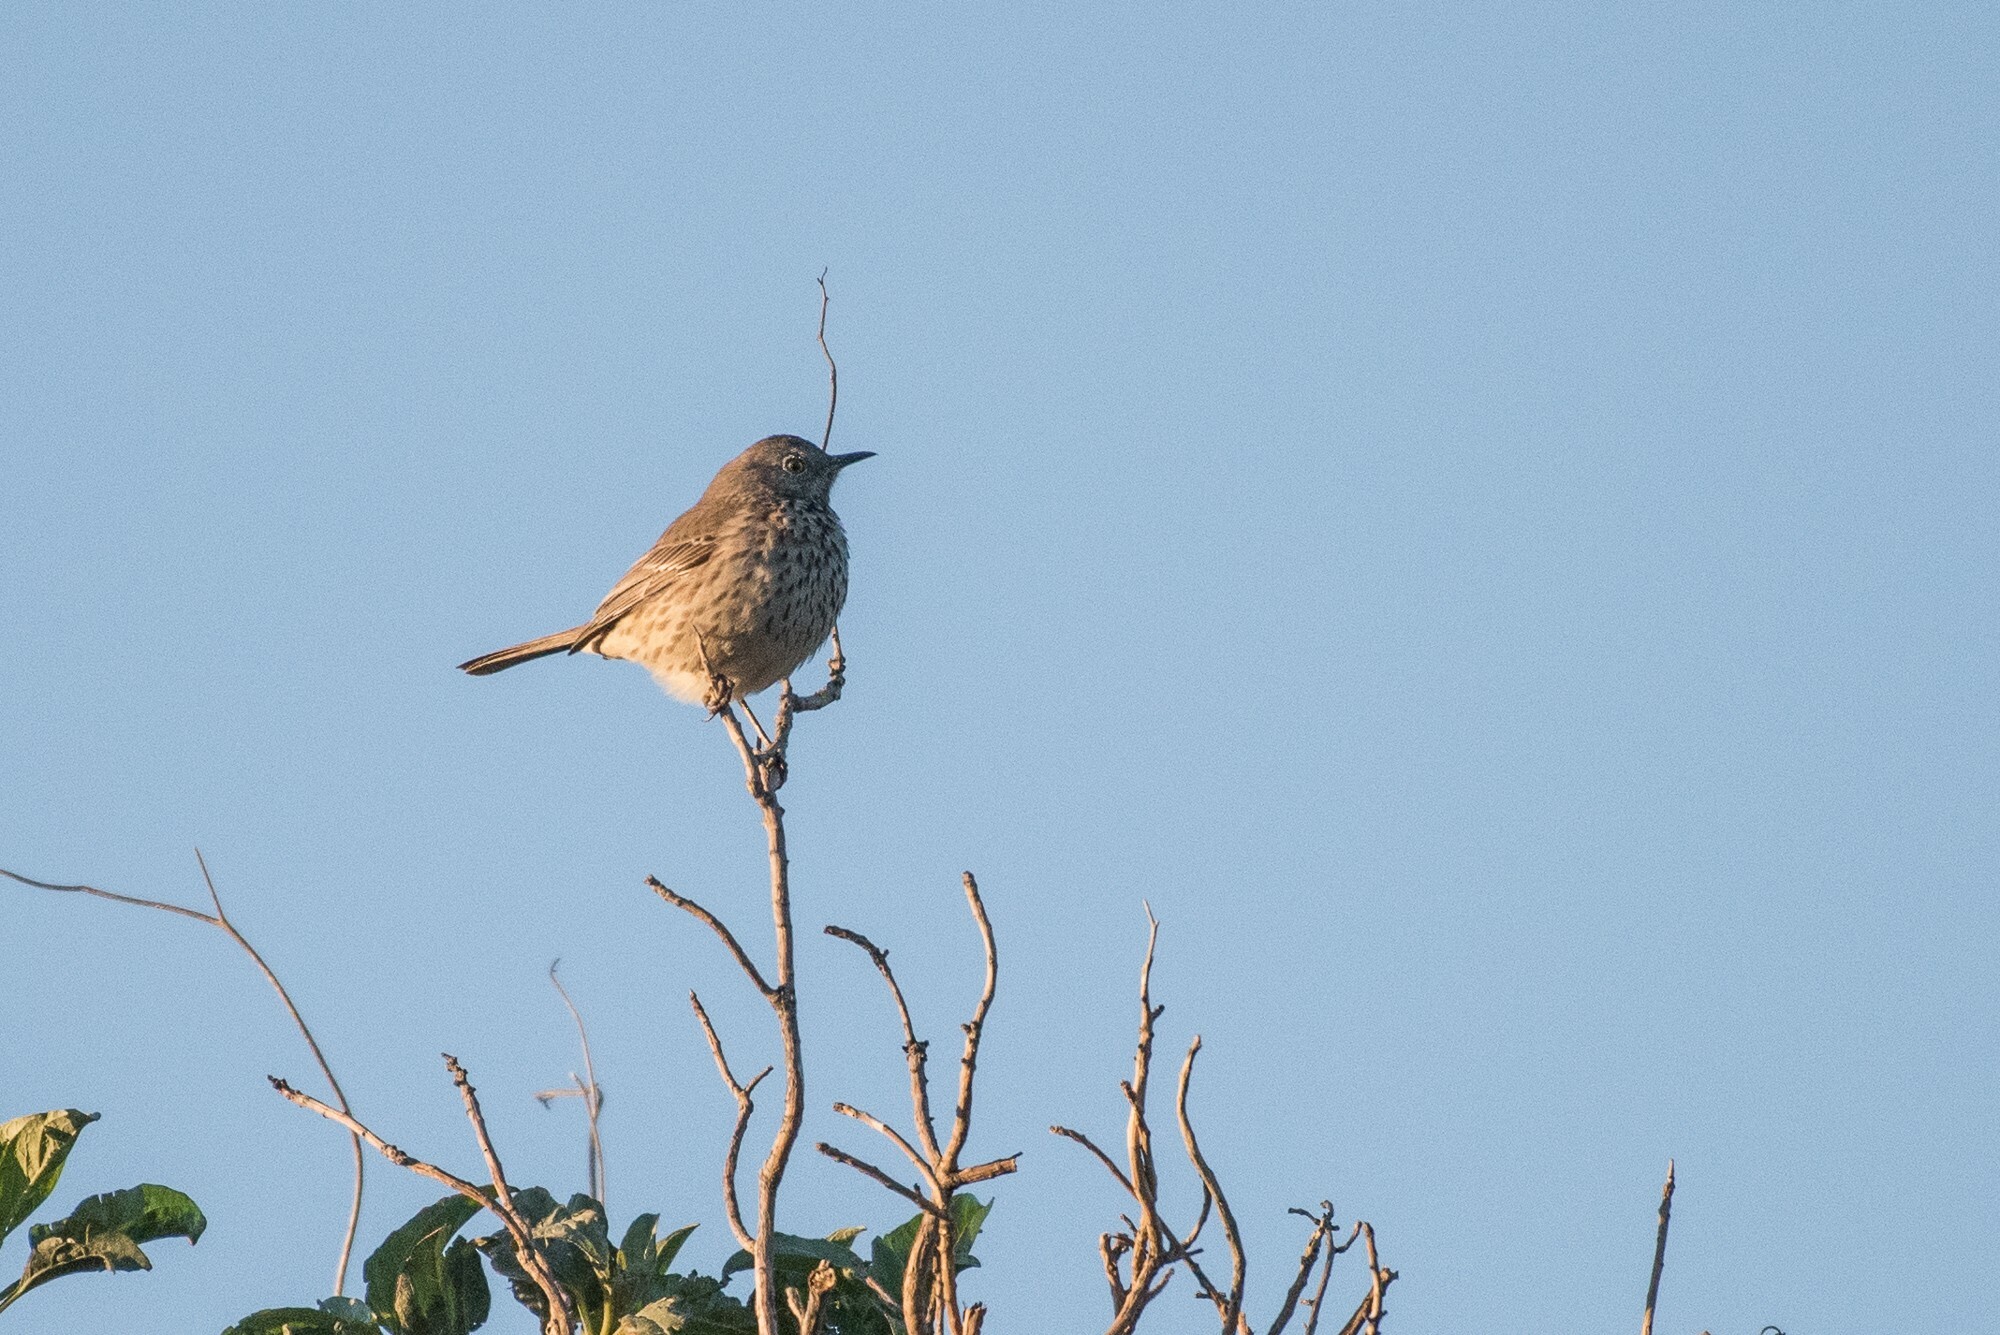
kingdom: Animalia
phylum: Chordata
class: Aves
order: Passeriformes
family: Mimidae
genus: Oreoscoptes
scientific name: Oreoscoptes montanus
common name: Sage thrasher
